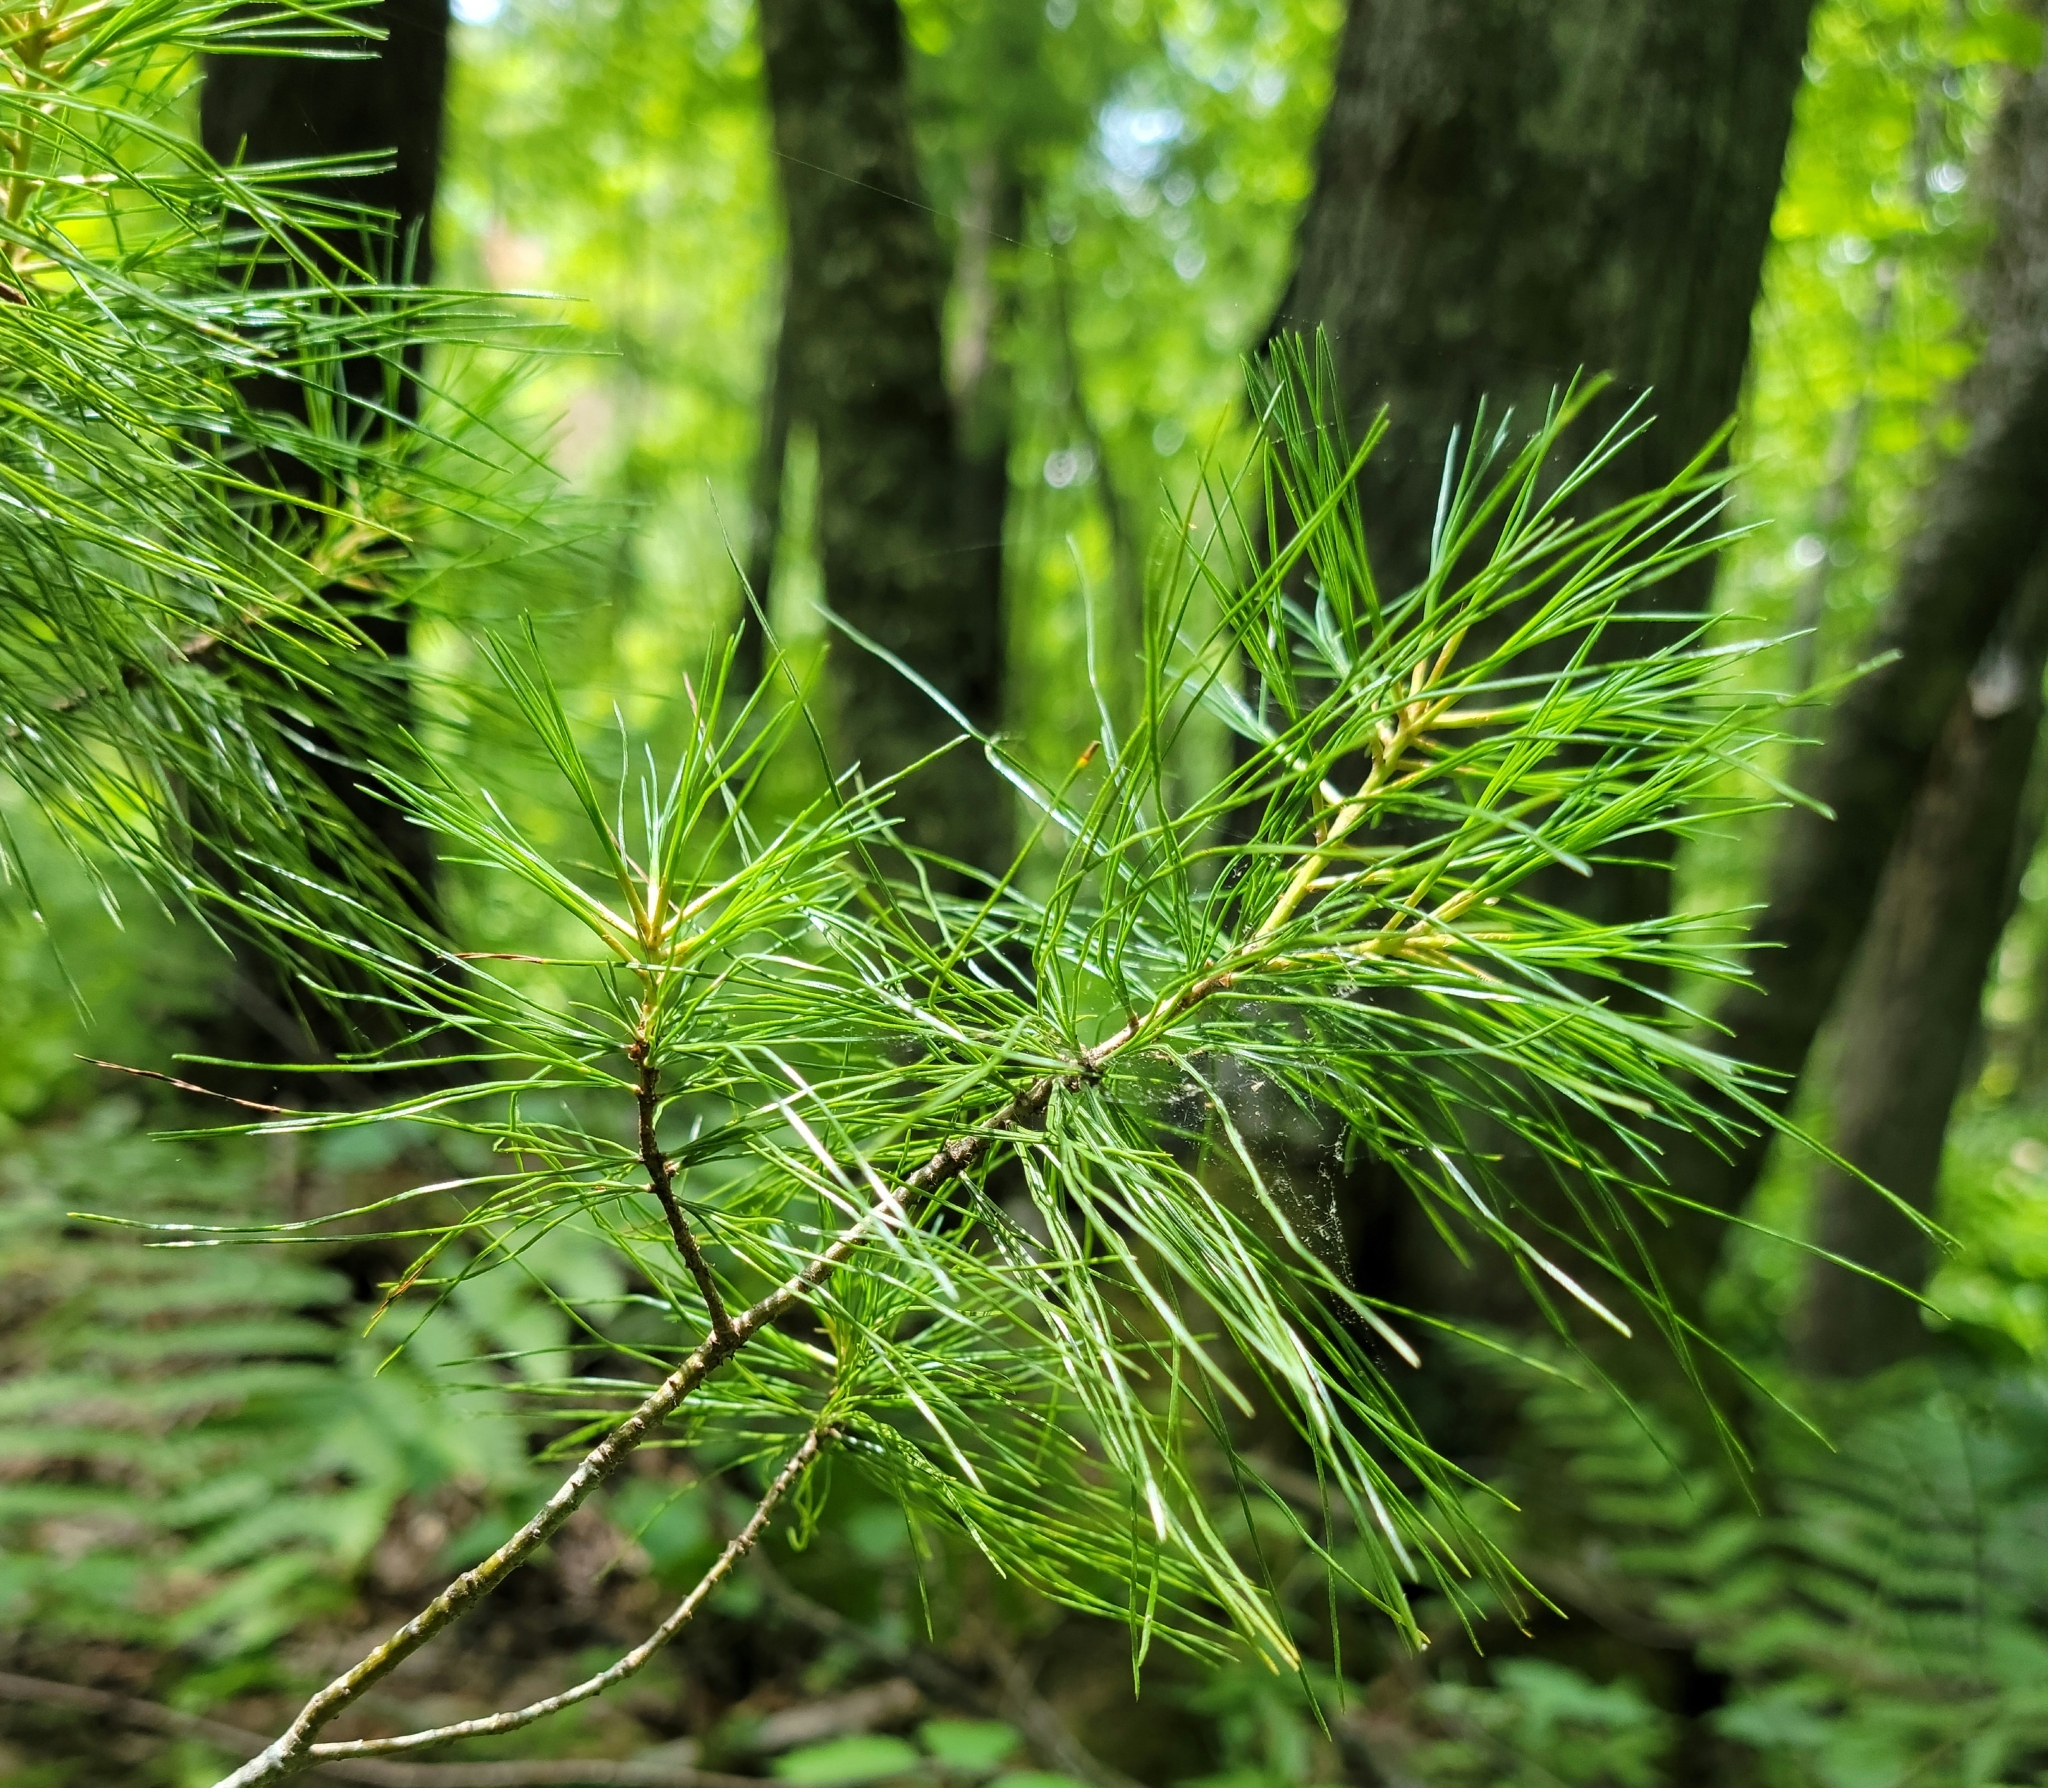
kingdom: Plantae
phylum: Tracheophyta
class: Pinopsida
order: Pinales
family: Pinaceae
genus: Pinus
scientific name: Pinus strobus
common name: Weymouth pine
